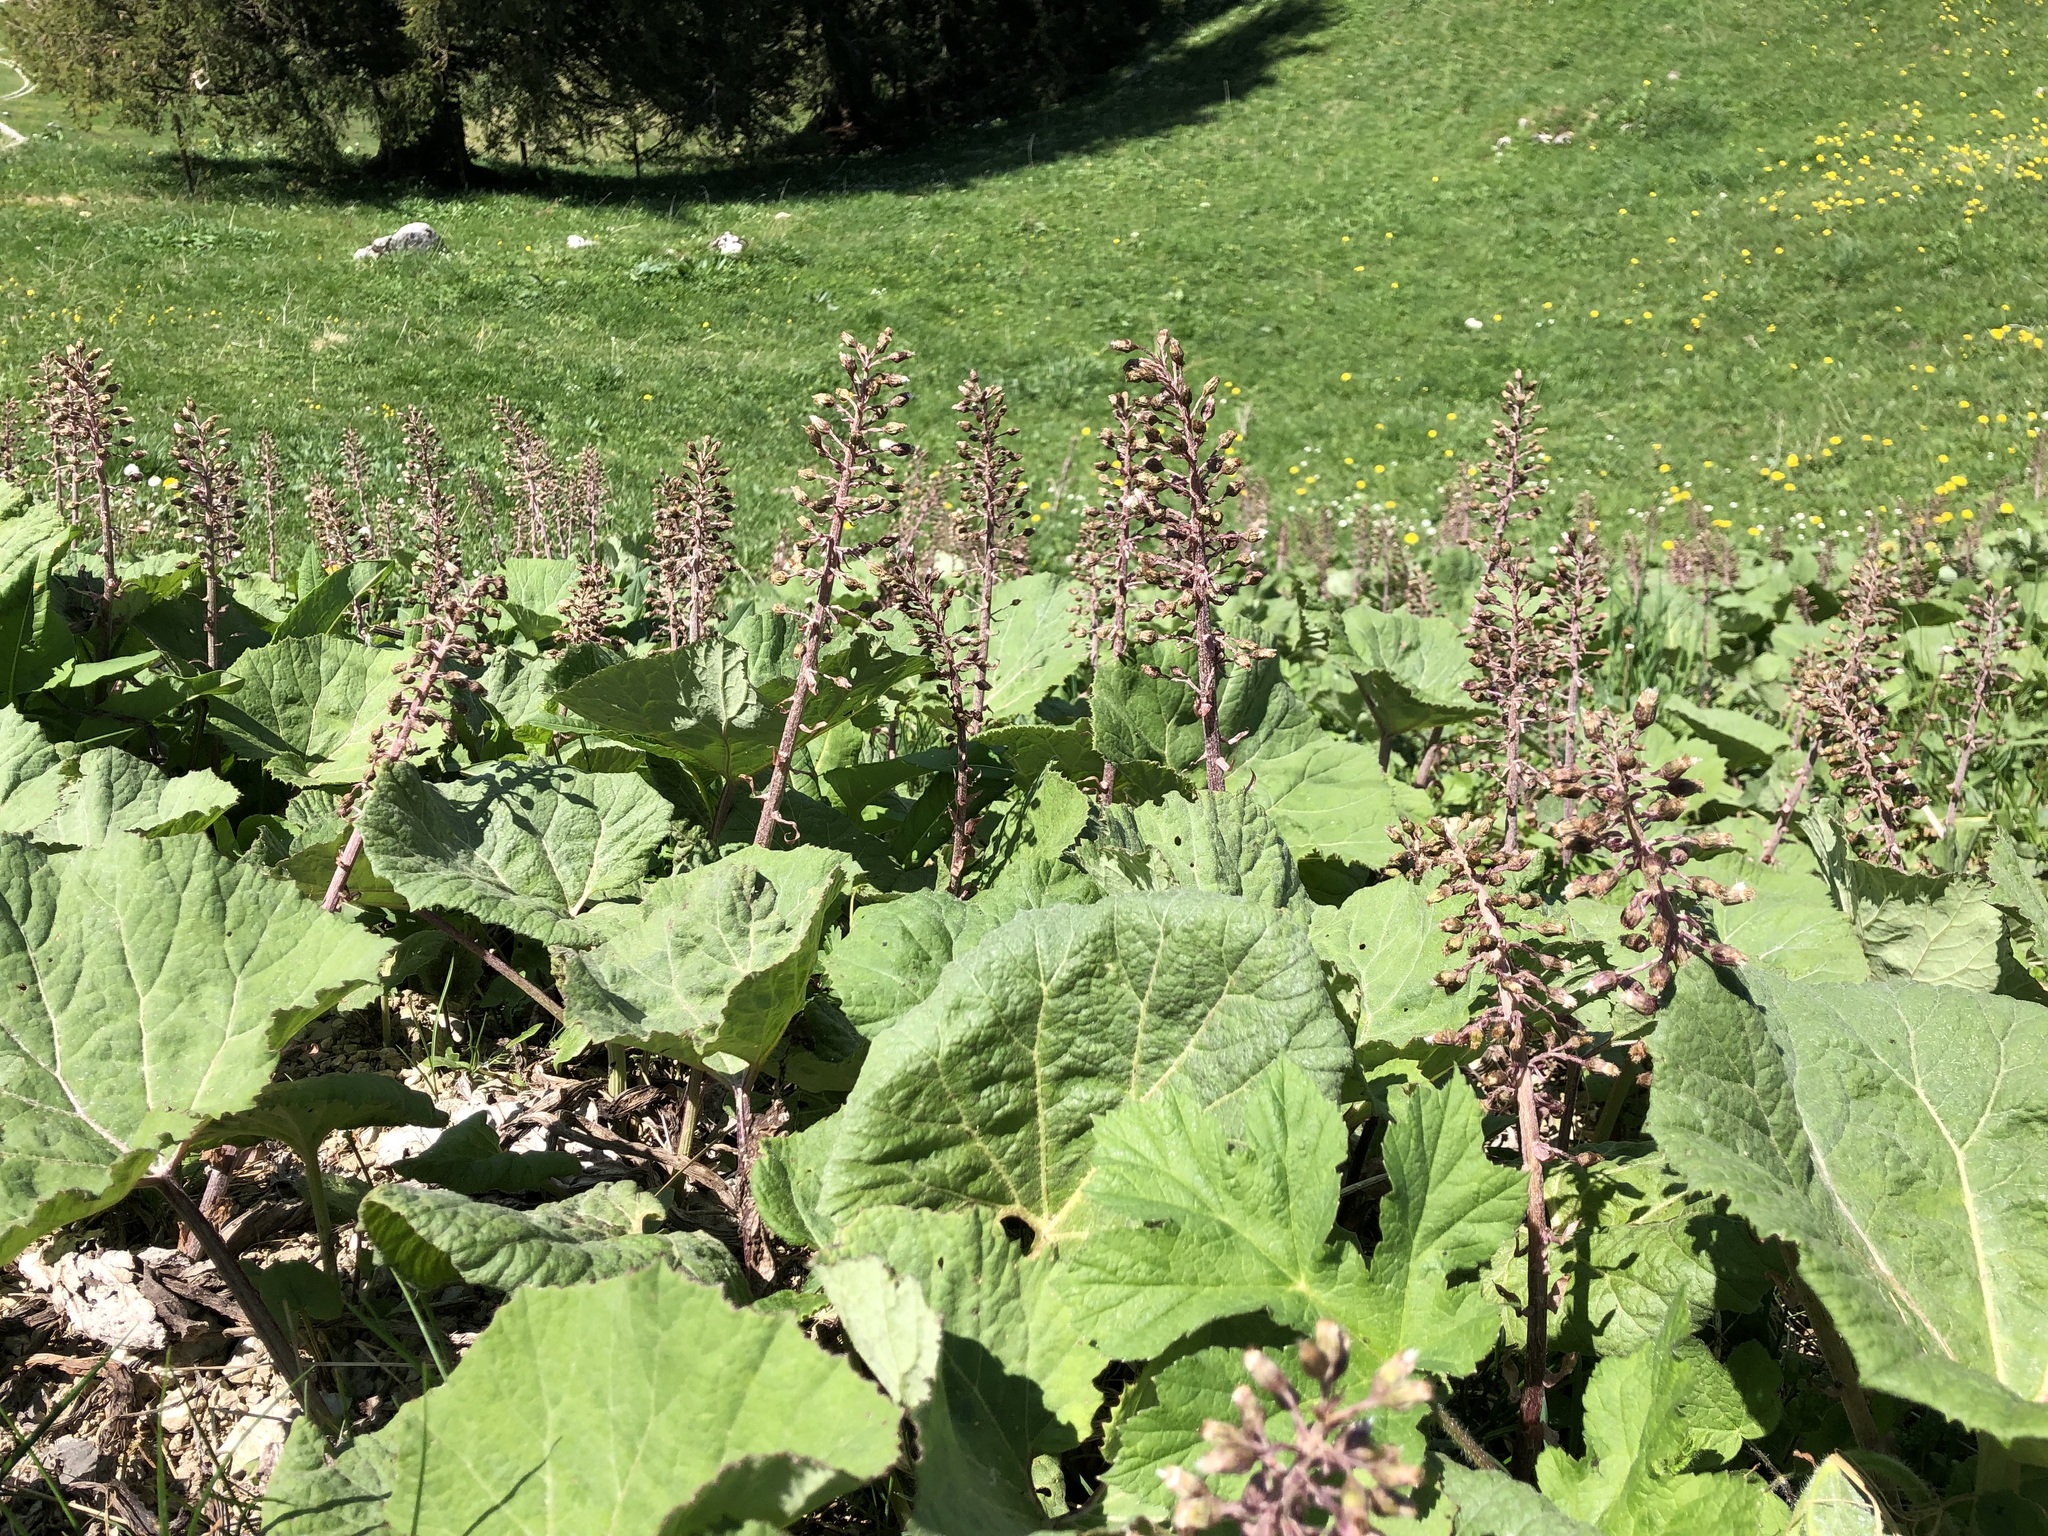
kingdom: Plantae
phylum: Tracheophyta
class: Magnoliopsida
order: Asterales
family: Asteraceae
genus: Petasites
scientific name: Petasites hybridus
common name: Butterbur
